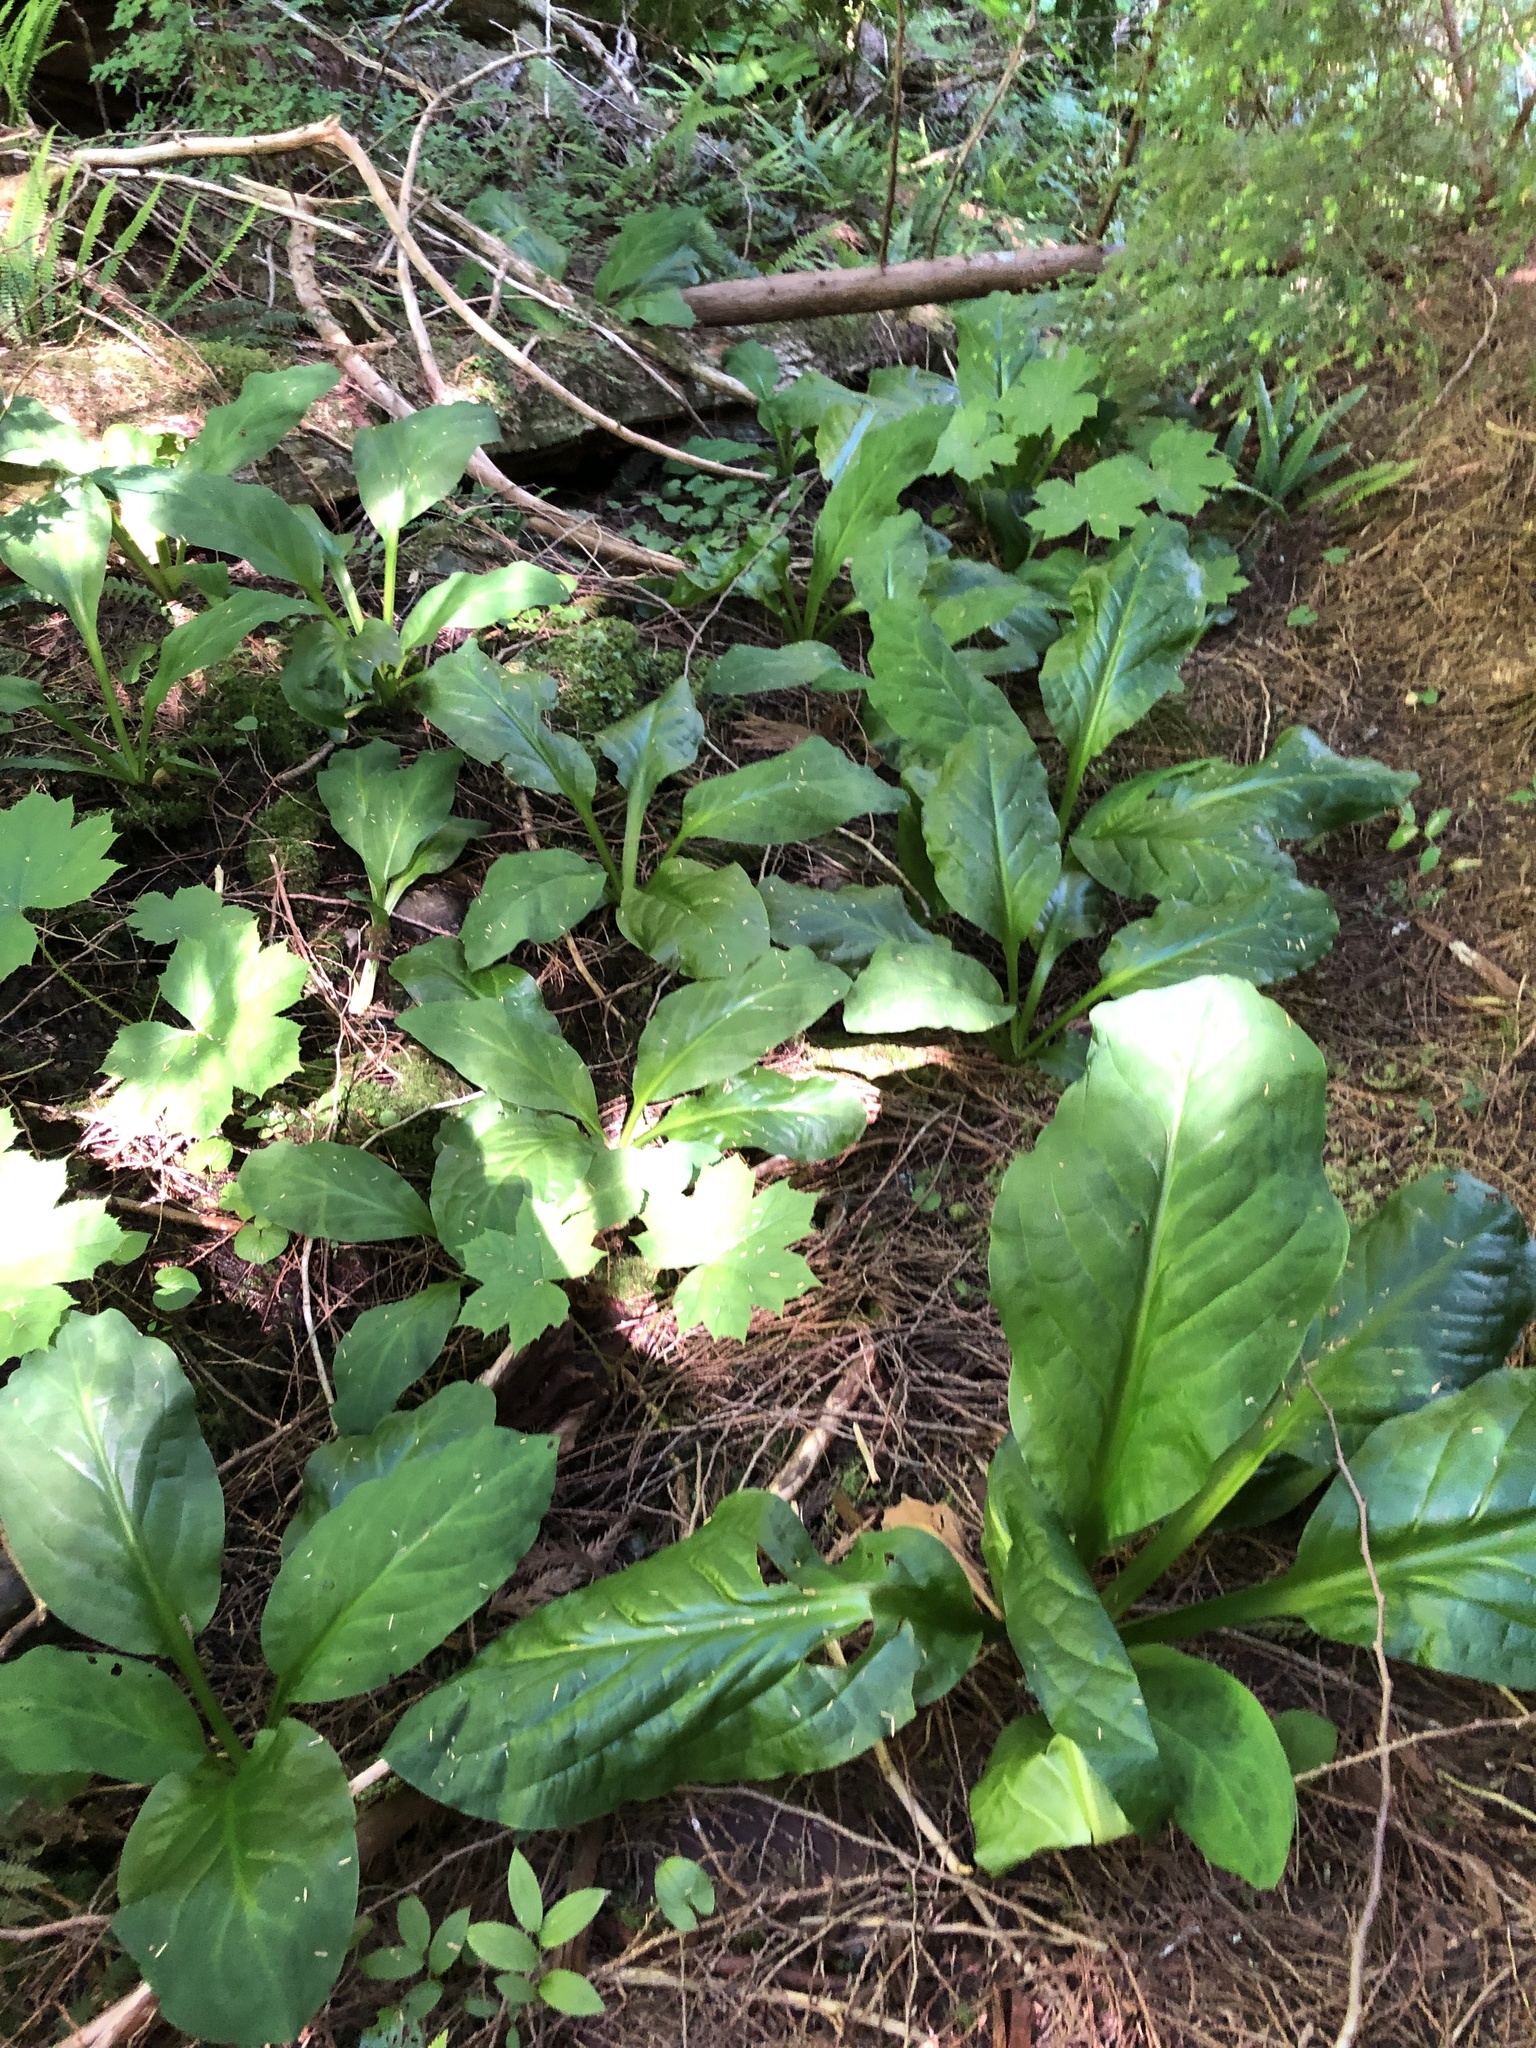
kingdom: Plantae
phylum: Tracheophyta
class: Magnoliopsida
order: Apiales
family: Araliaceae
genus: Oplopanax
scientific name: Oplopanax horridus
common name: Devil's walking-stick
